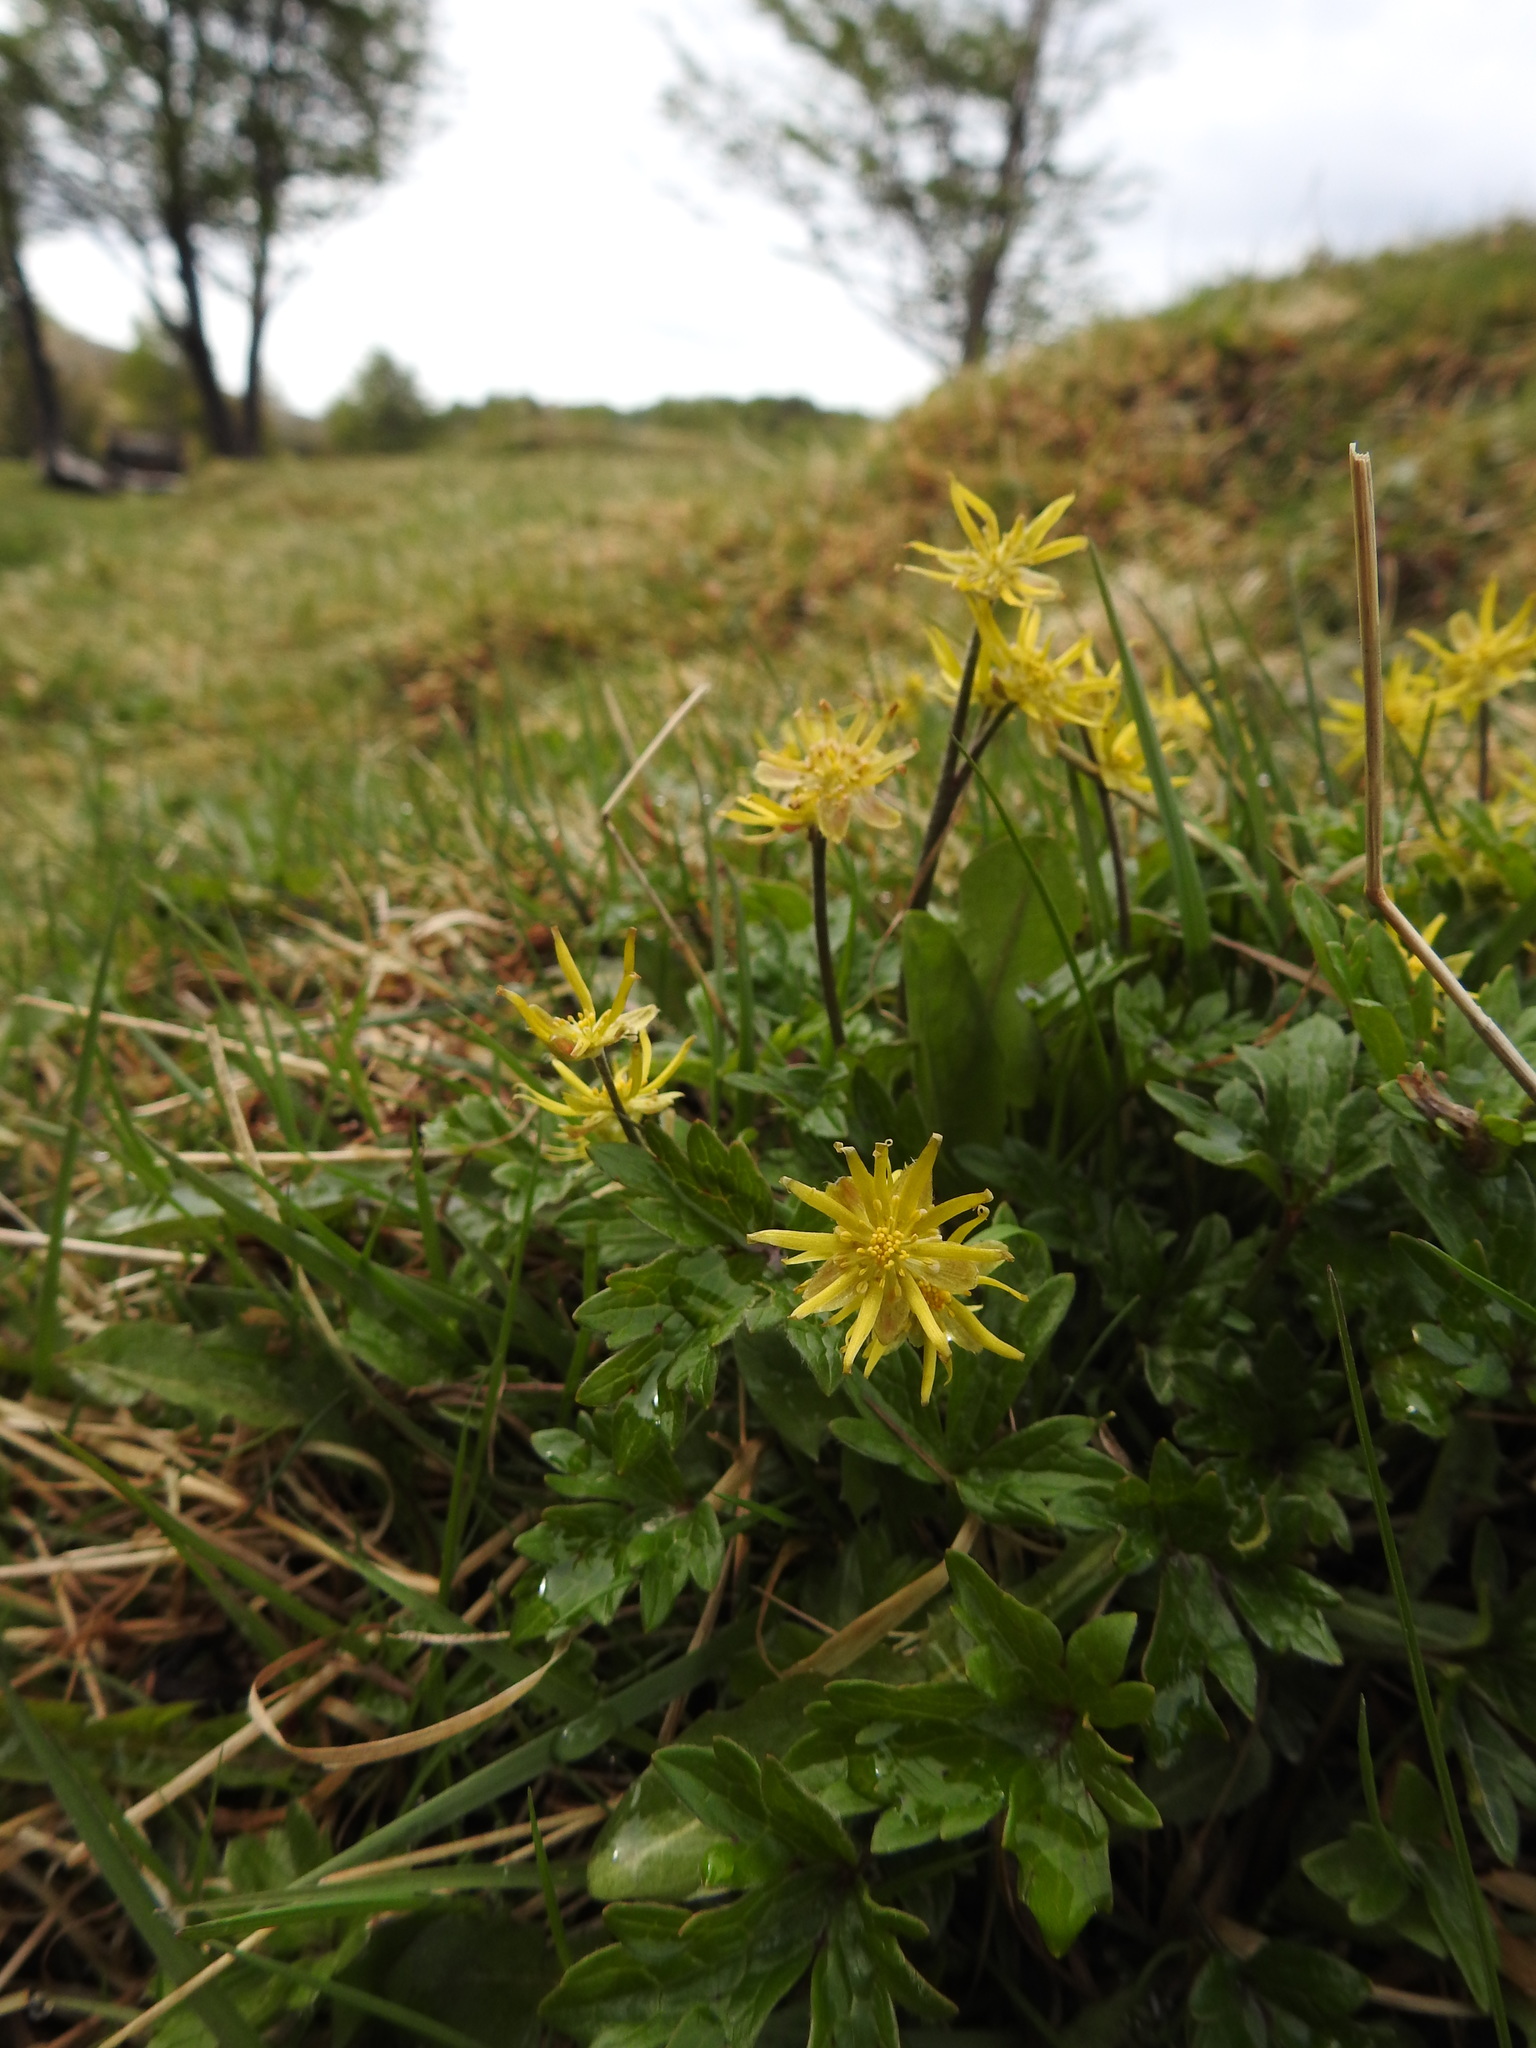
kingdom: Plantae
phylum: Tracheophyta
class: Magnoliopsida
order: Ranunculales
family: Ranunculaceae
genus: Hamadryas
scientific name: Hamadryas magellanica
